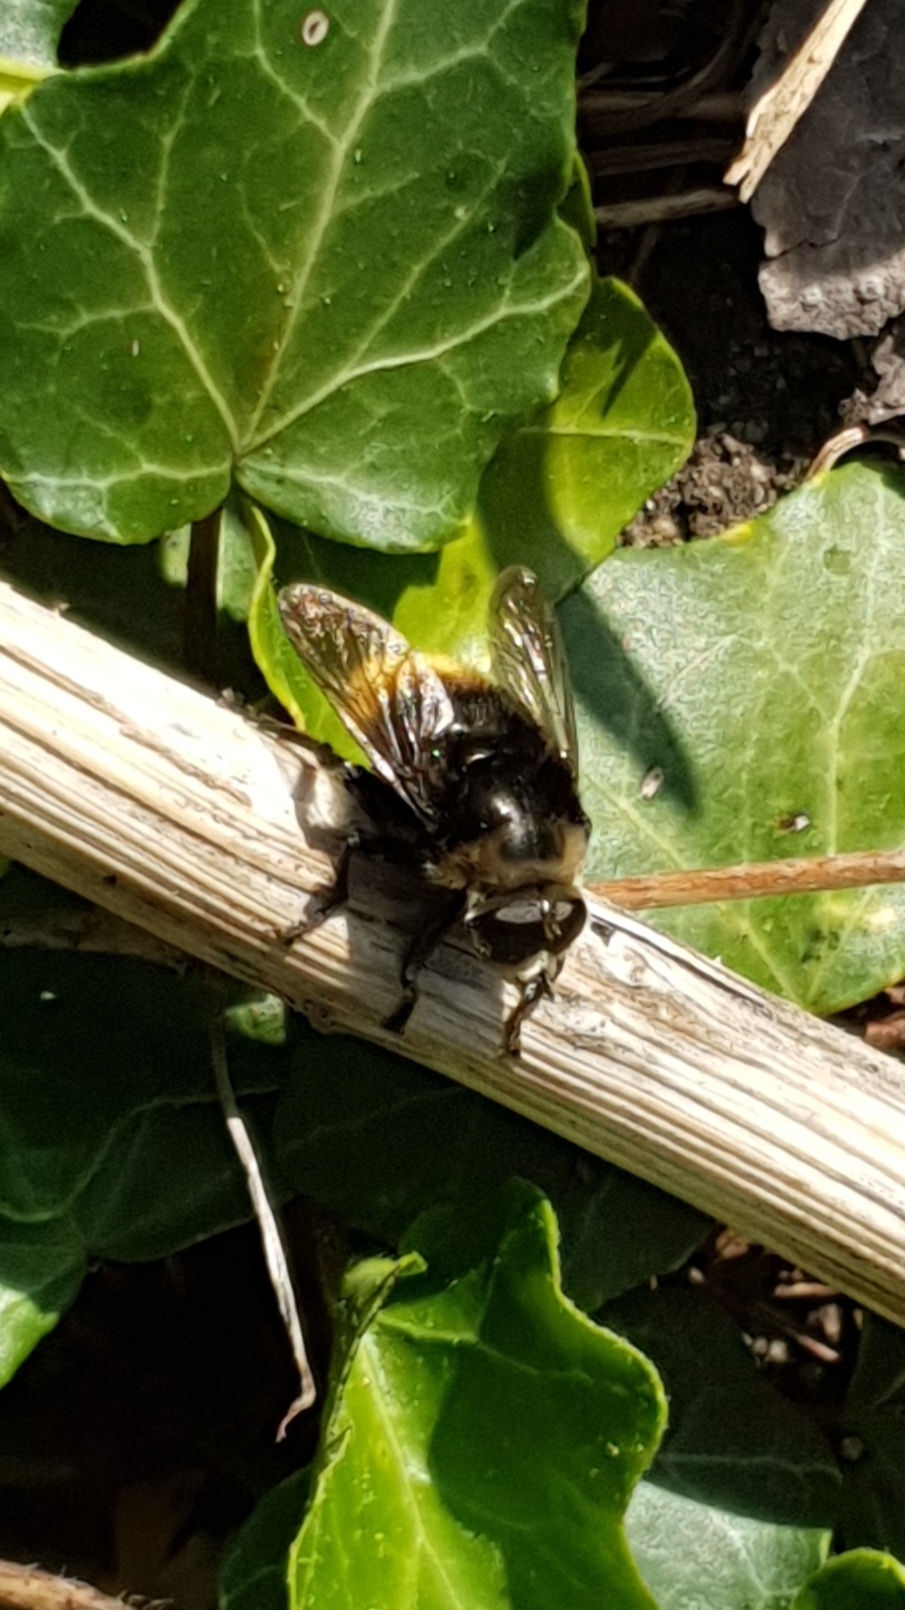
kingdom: Animalia
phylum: Arthropoda
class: Insecta
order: Diptera
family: Syrphidae
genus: Merodon
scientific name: Merodon equestris
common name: Greater bulb-fly
